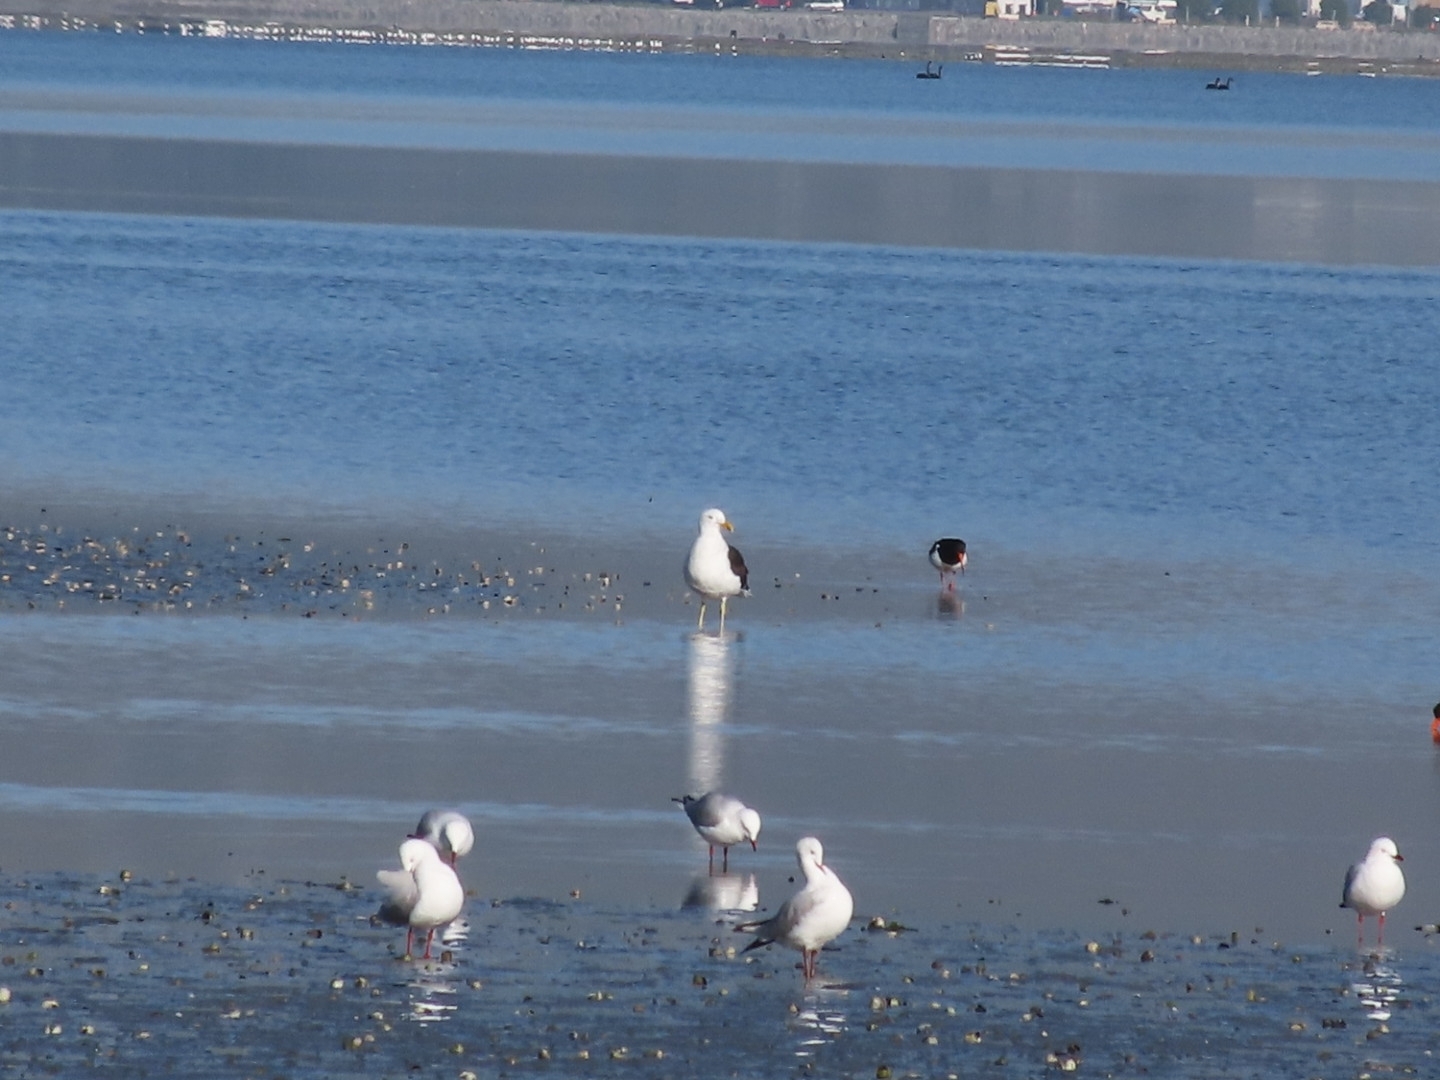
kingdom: Animalia
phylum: Chordata
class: Aves
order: Charadriiformes
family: Laridae
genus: Larus
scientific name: Larus dominicanus
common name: Kelp gull
